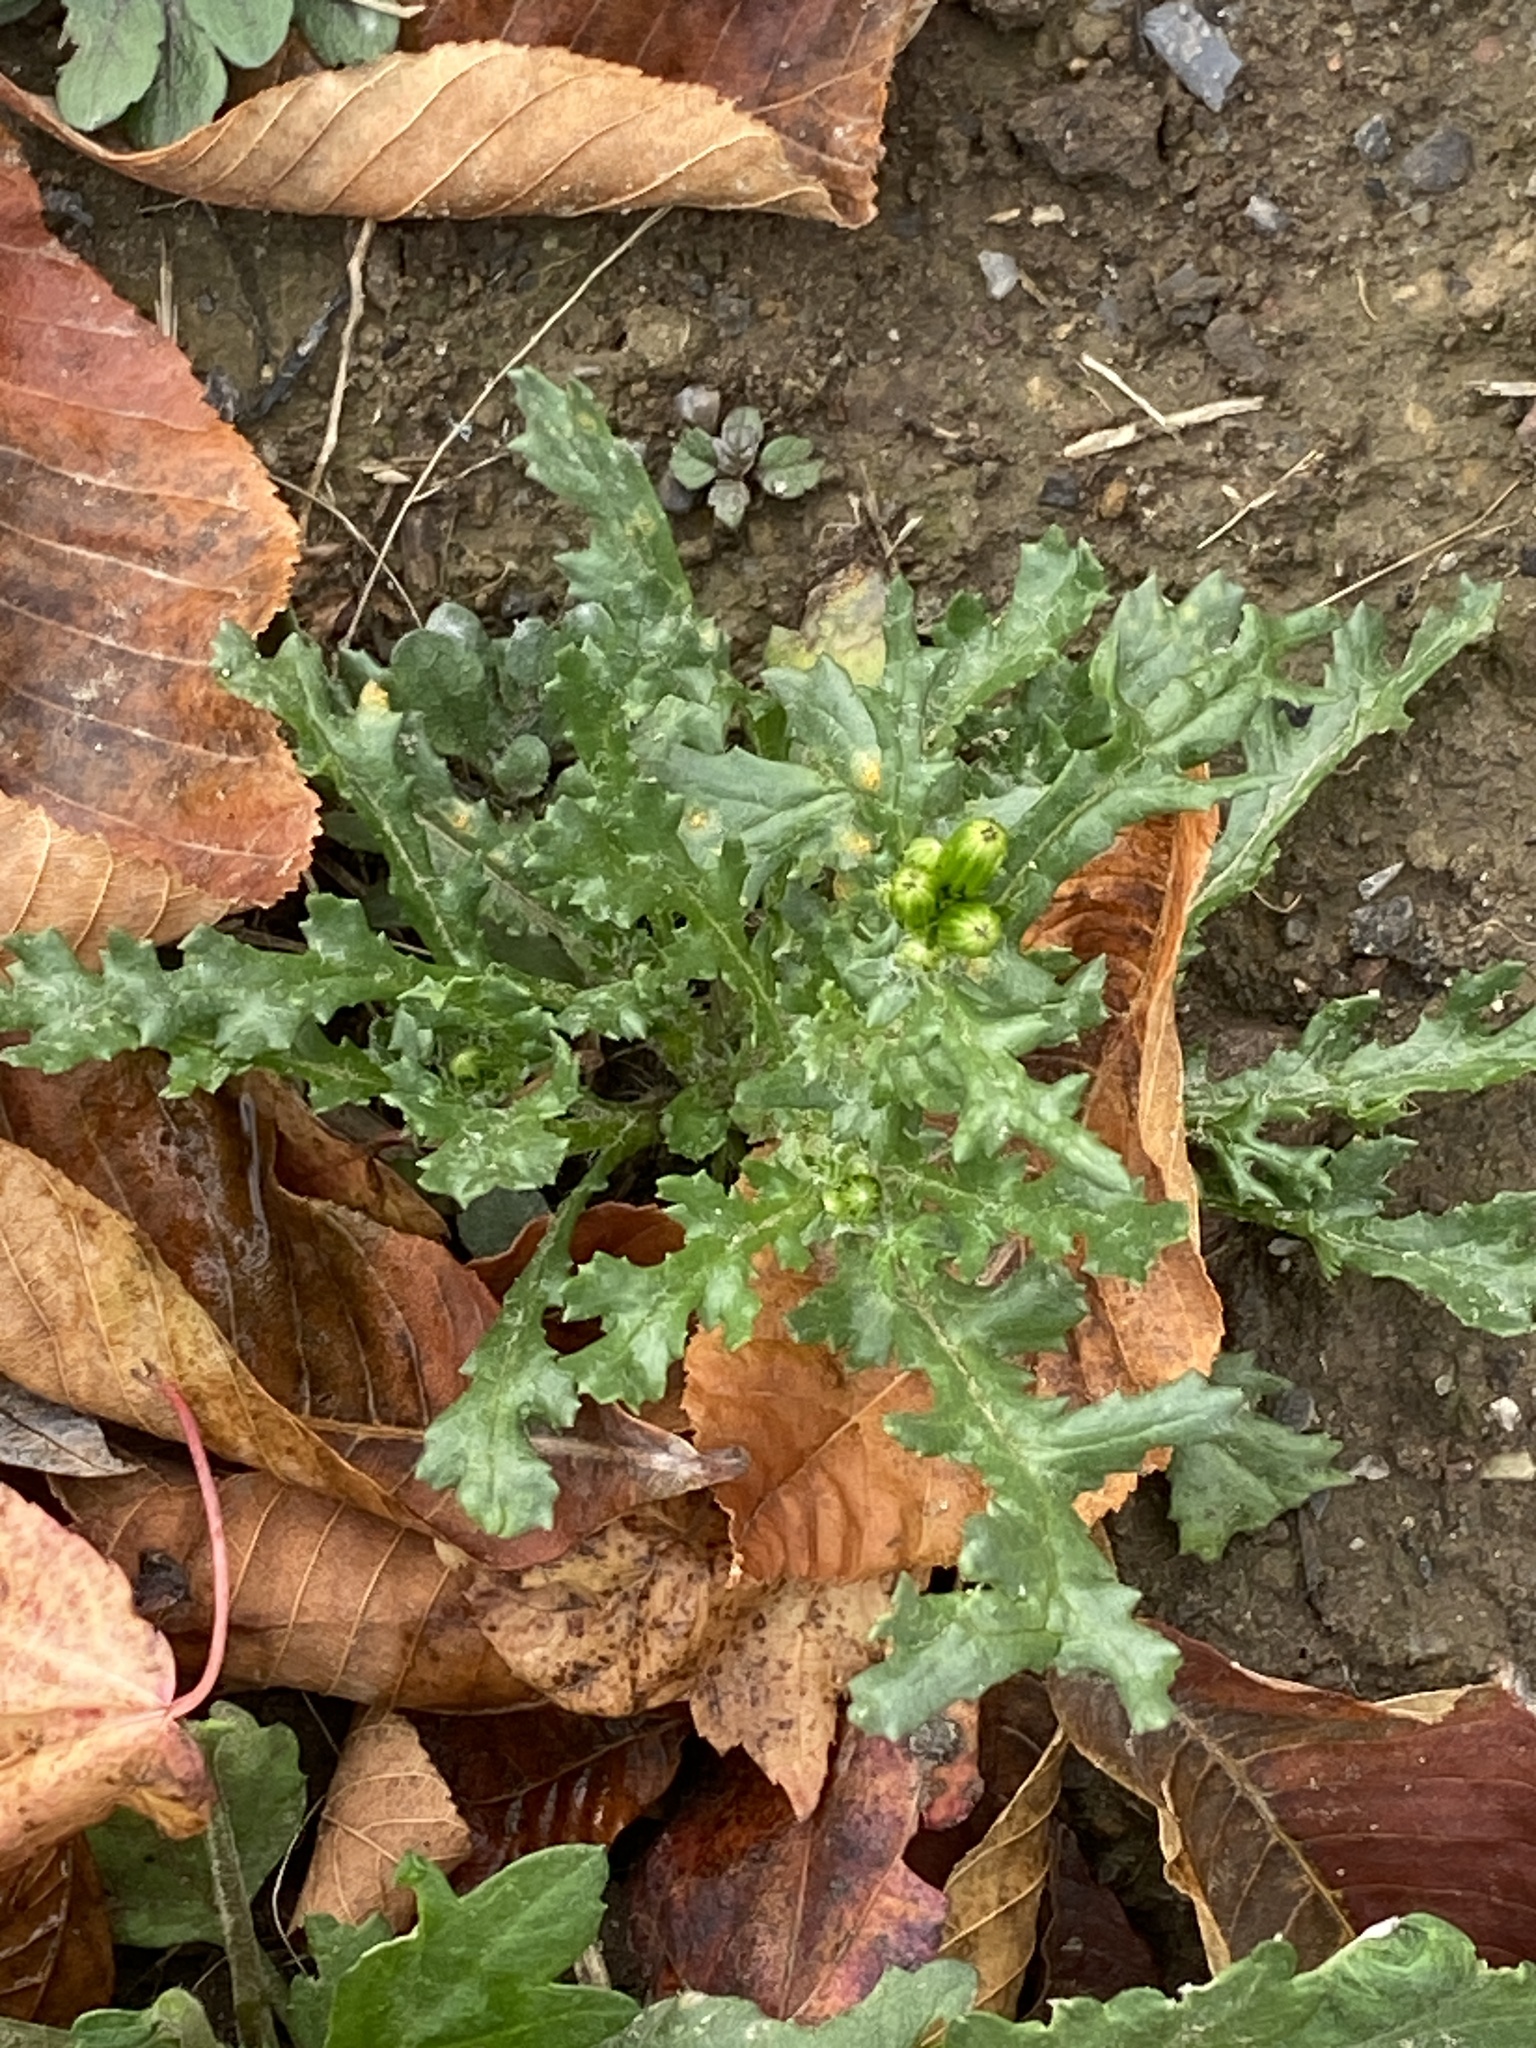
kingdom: Plantae
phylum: Tracheophyta
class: Magnoliopsida
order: Asterales
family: Asteraceae
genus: Senecio
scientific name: Senecio vulgaris
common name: Old-man-in-the-spring
